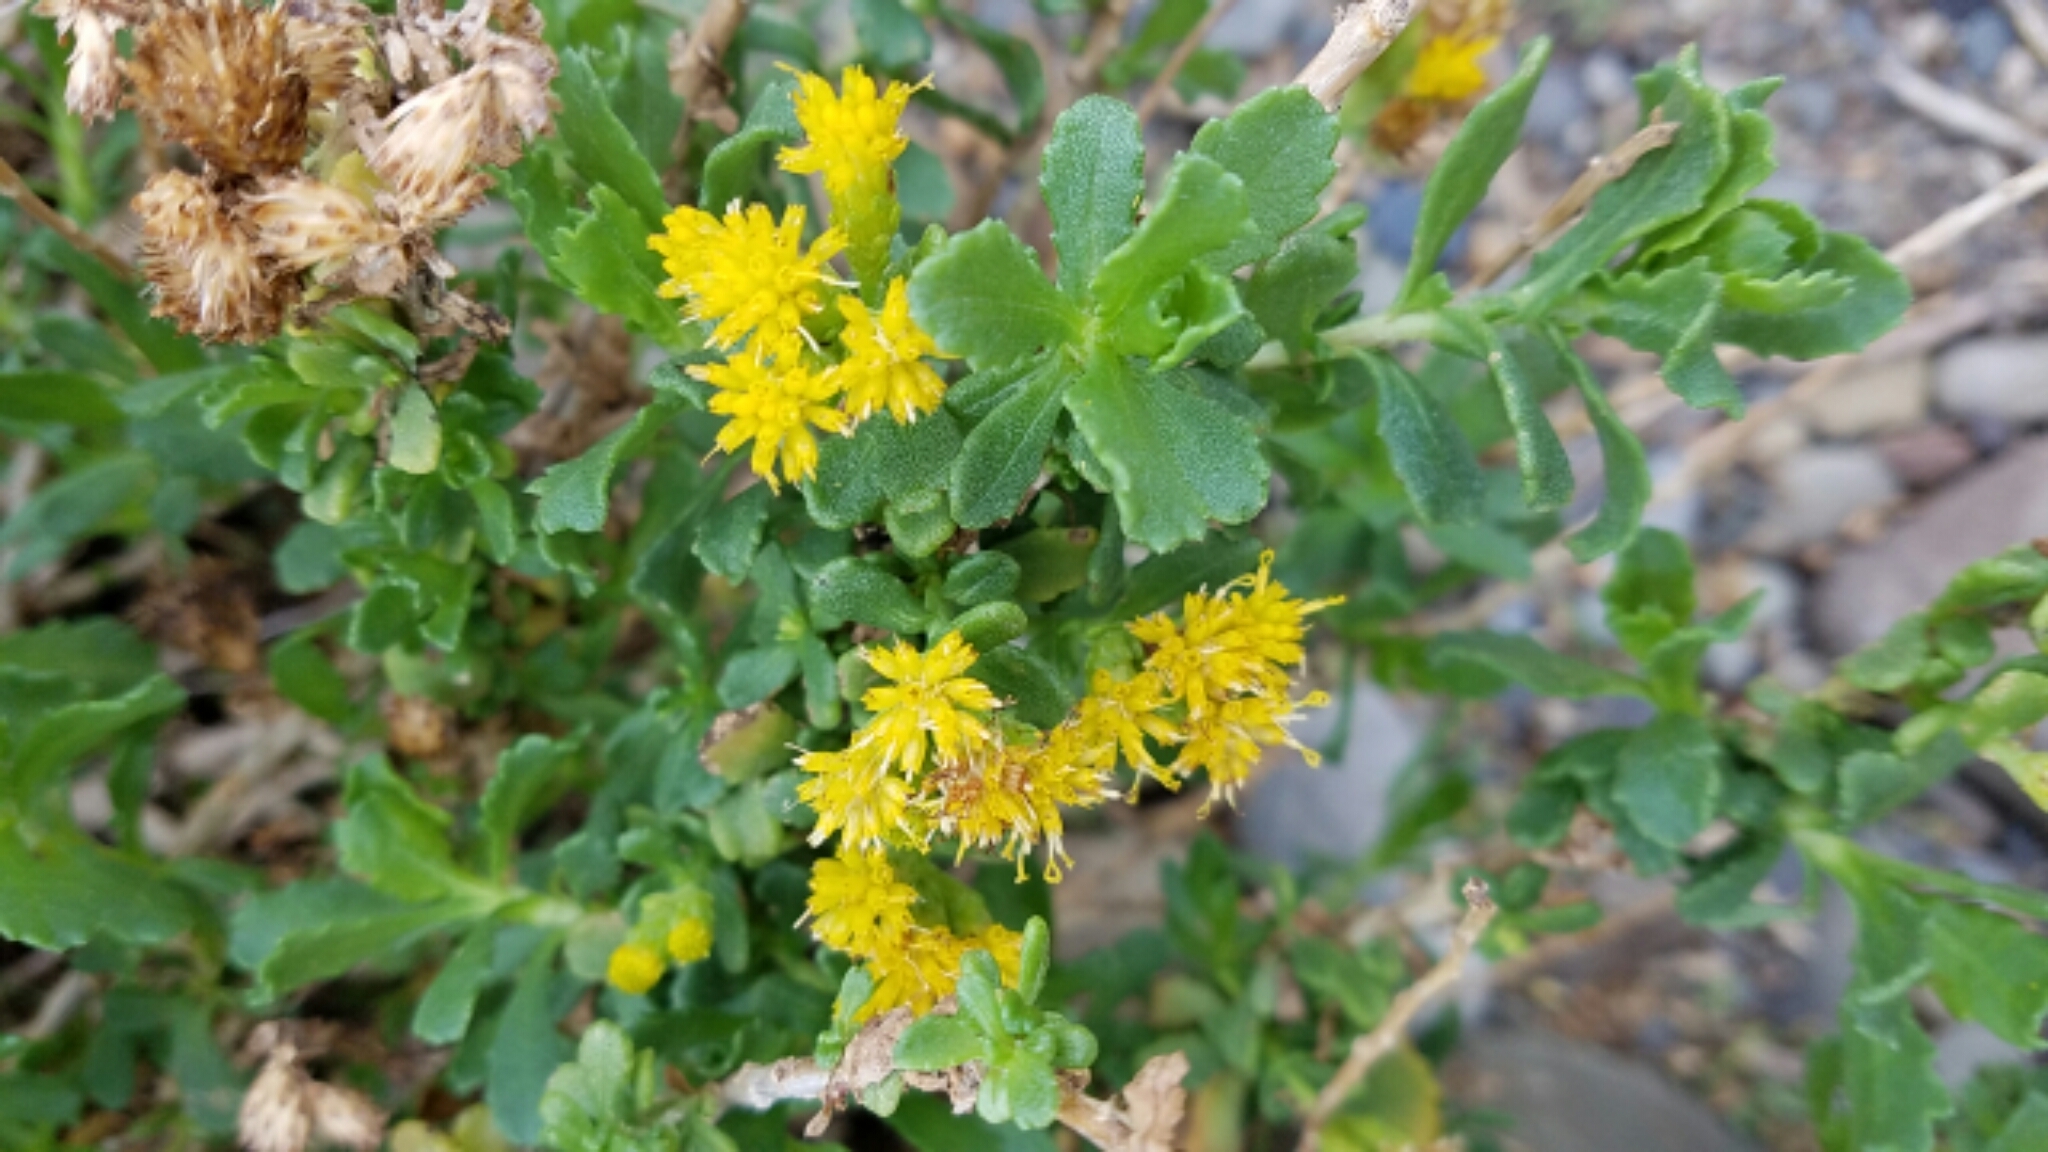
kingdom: Plantae
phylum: Tracheophyta
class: Magnoliopsida
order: Asterales
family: Asteraceae
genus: Isocoma
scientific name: Isocoma menziesii
